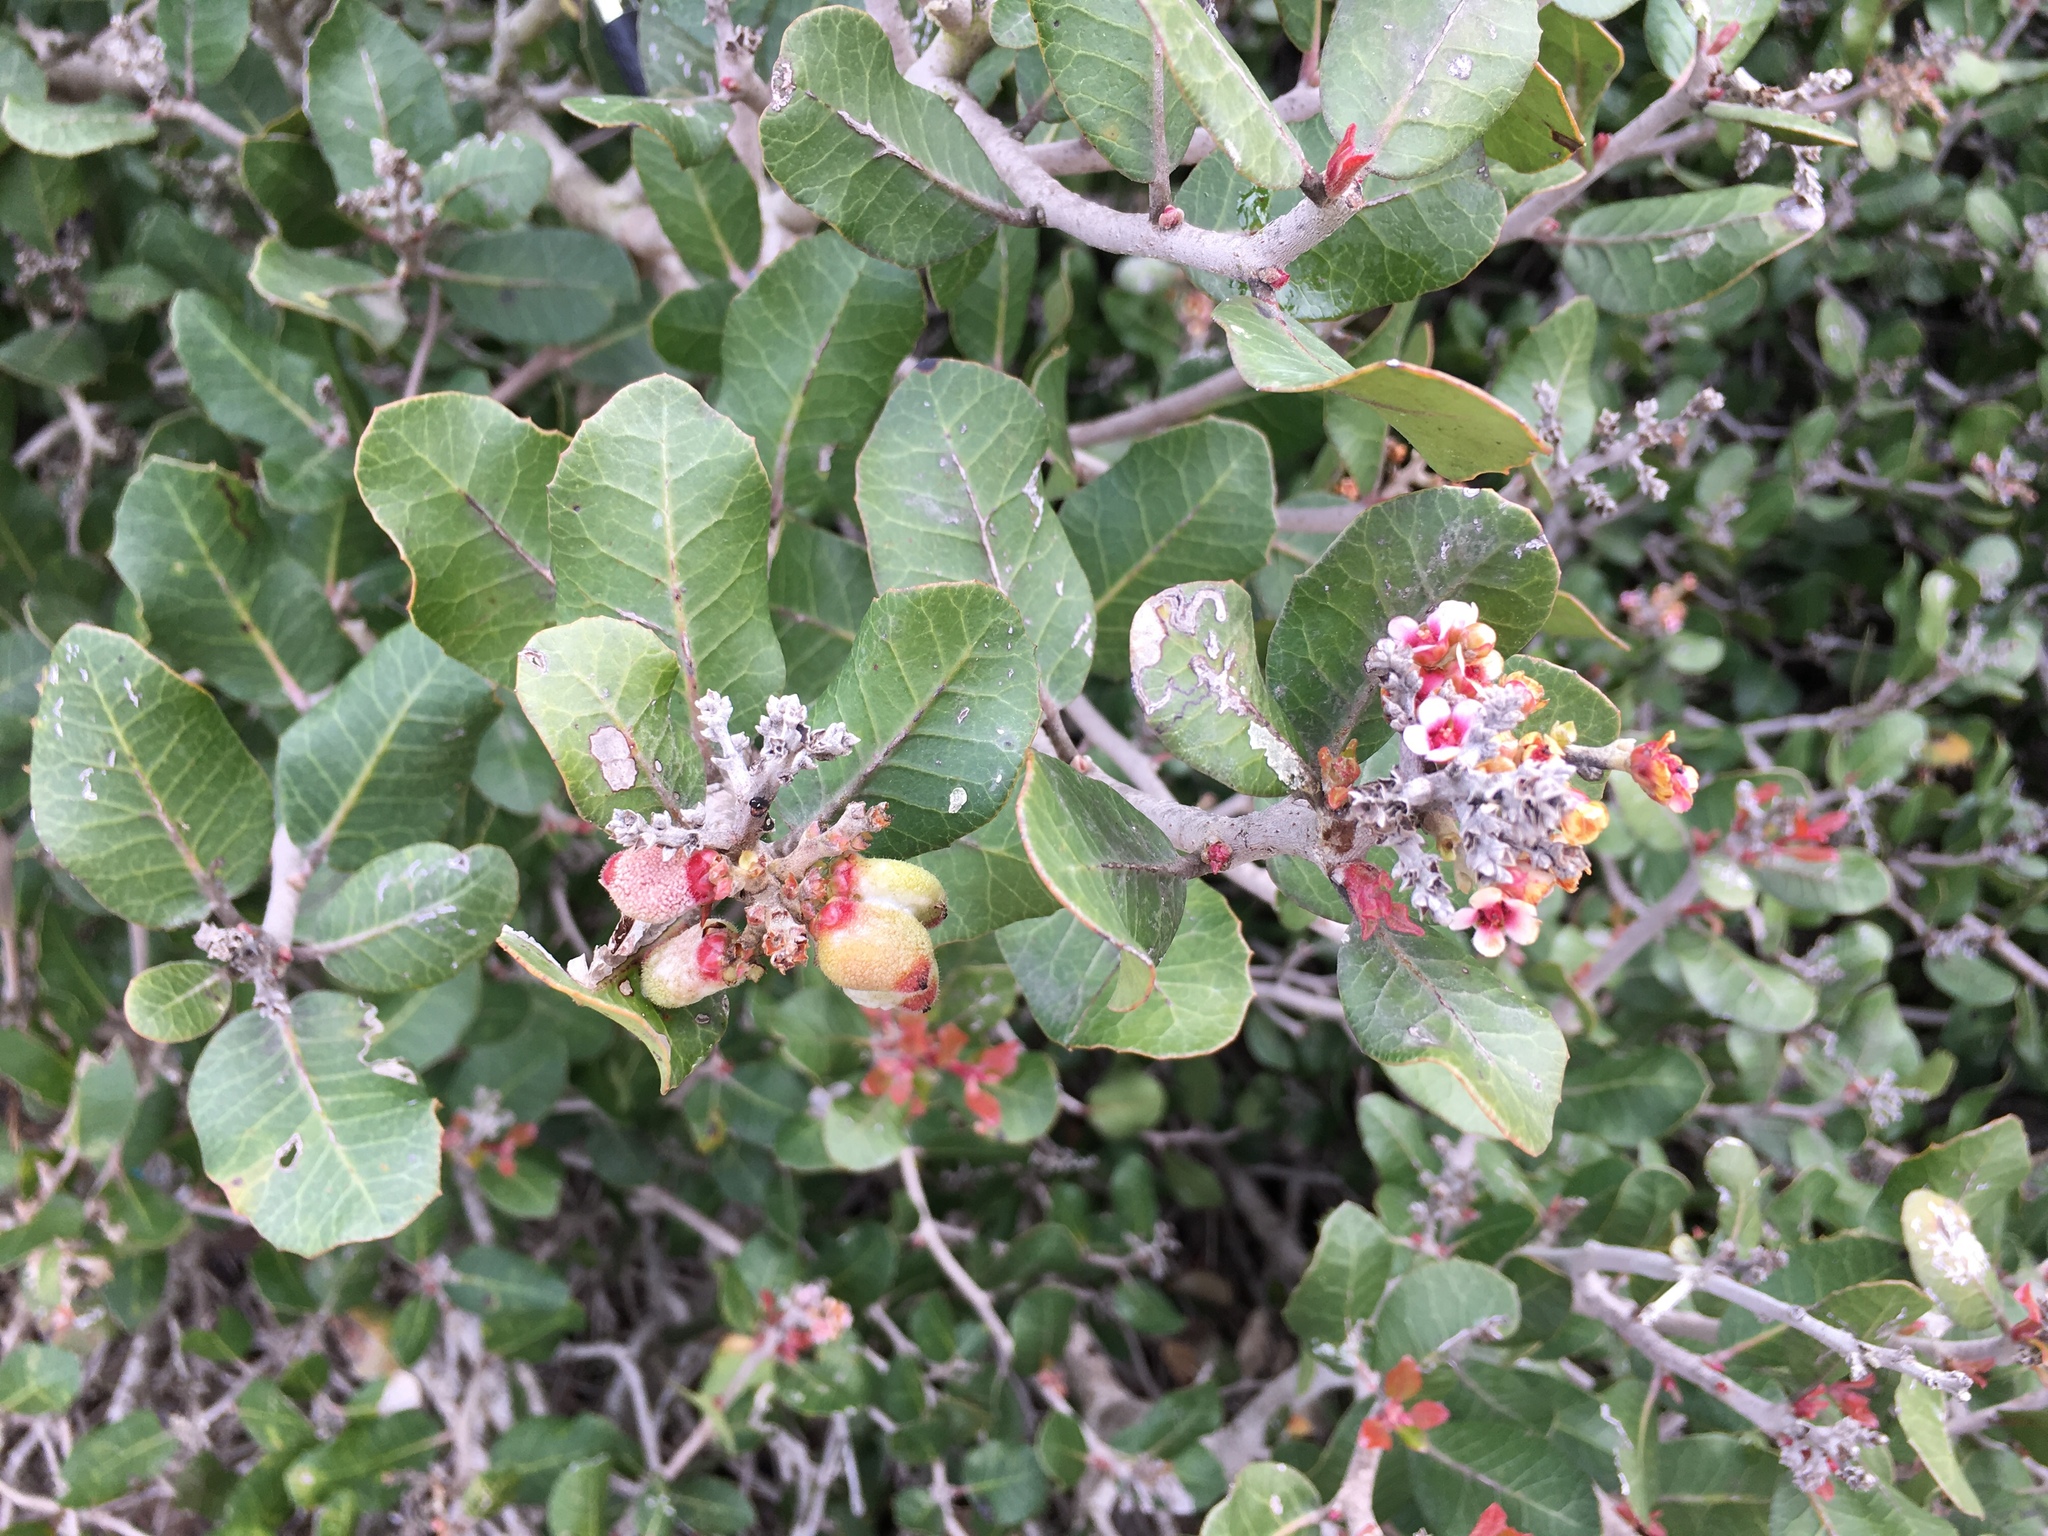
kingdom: Plantae
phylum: Tracheophyta
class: Magnoliopsida
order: Sapindales
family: Anacardiaceae
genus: Rhus
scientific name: Rhus integrifolia
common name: Lemonade sumac
